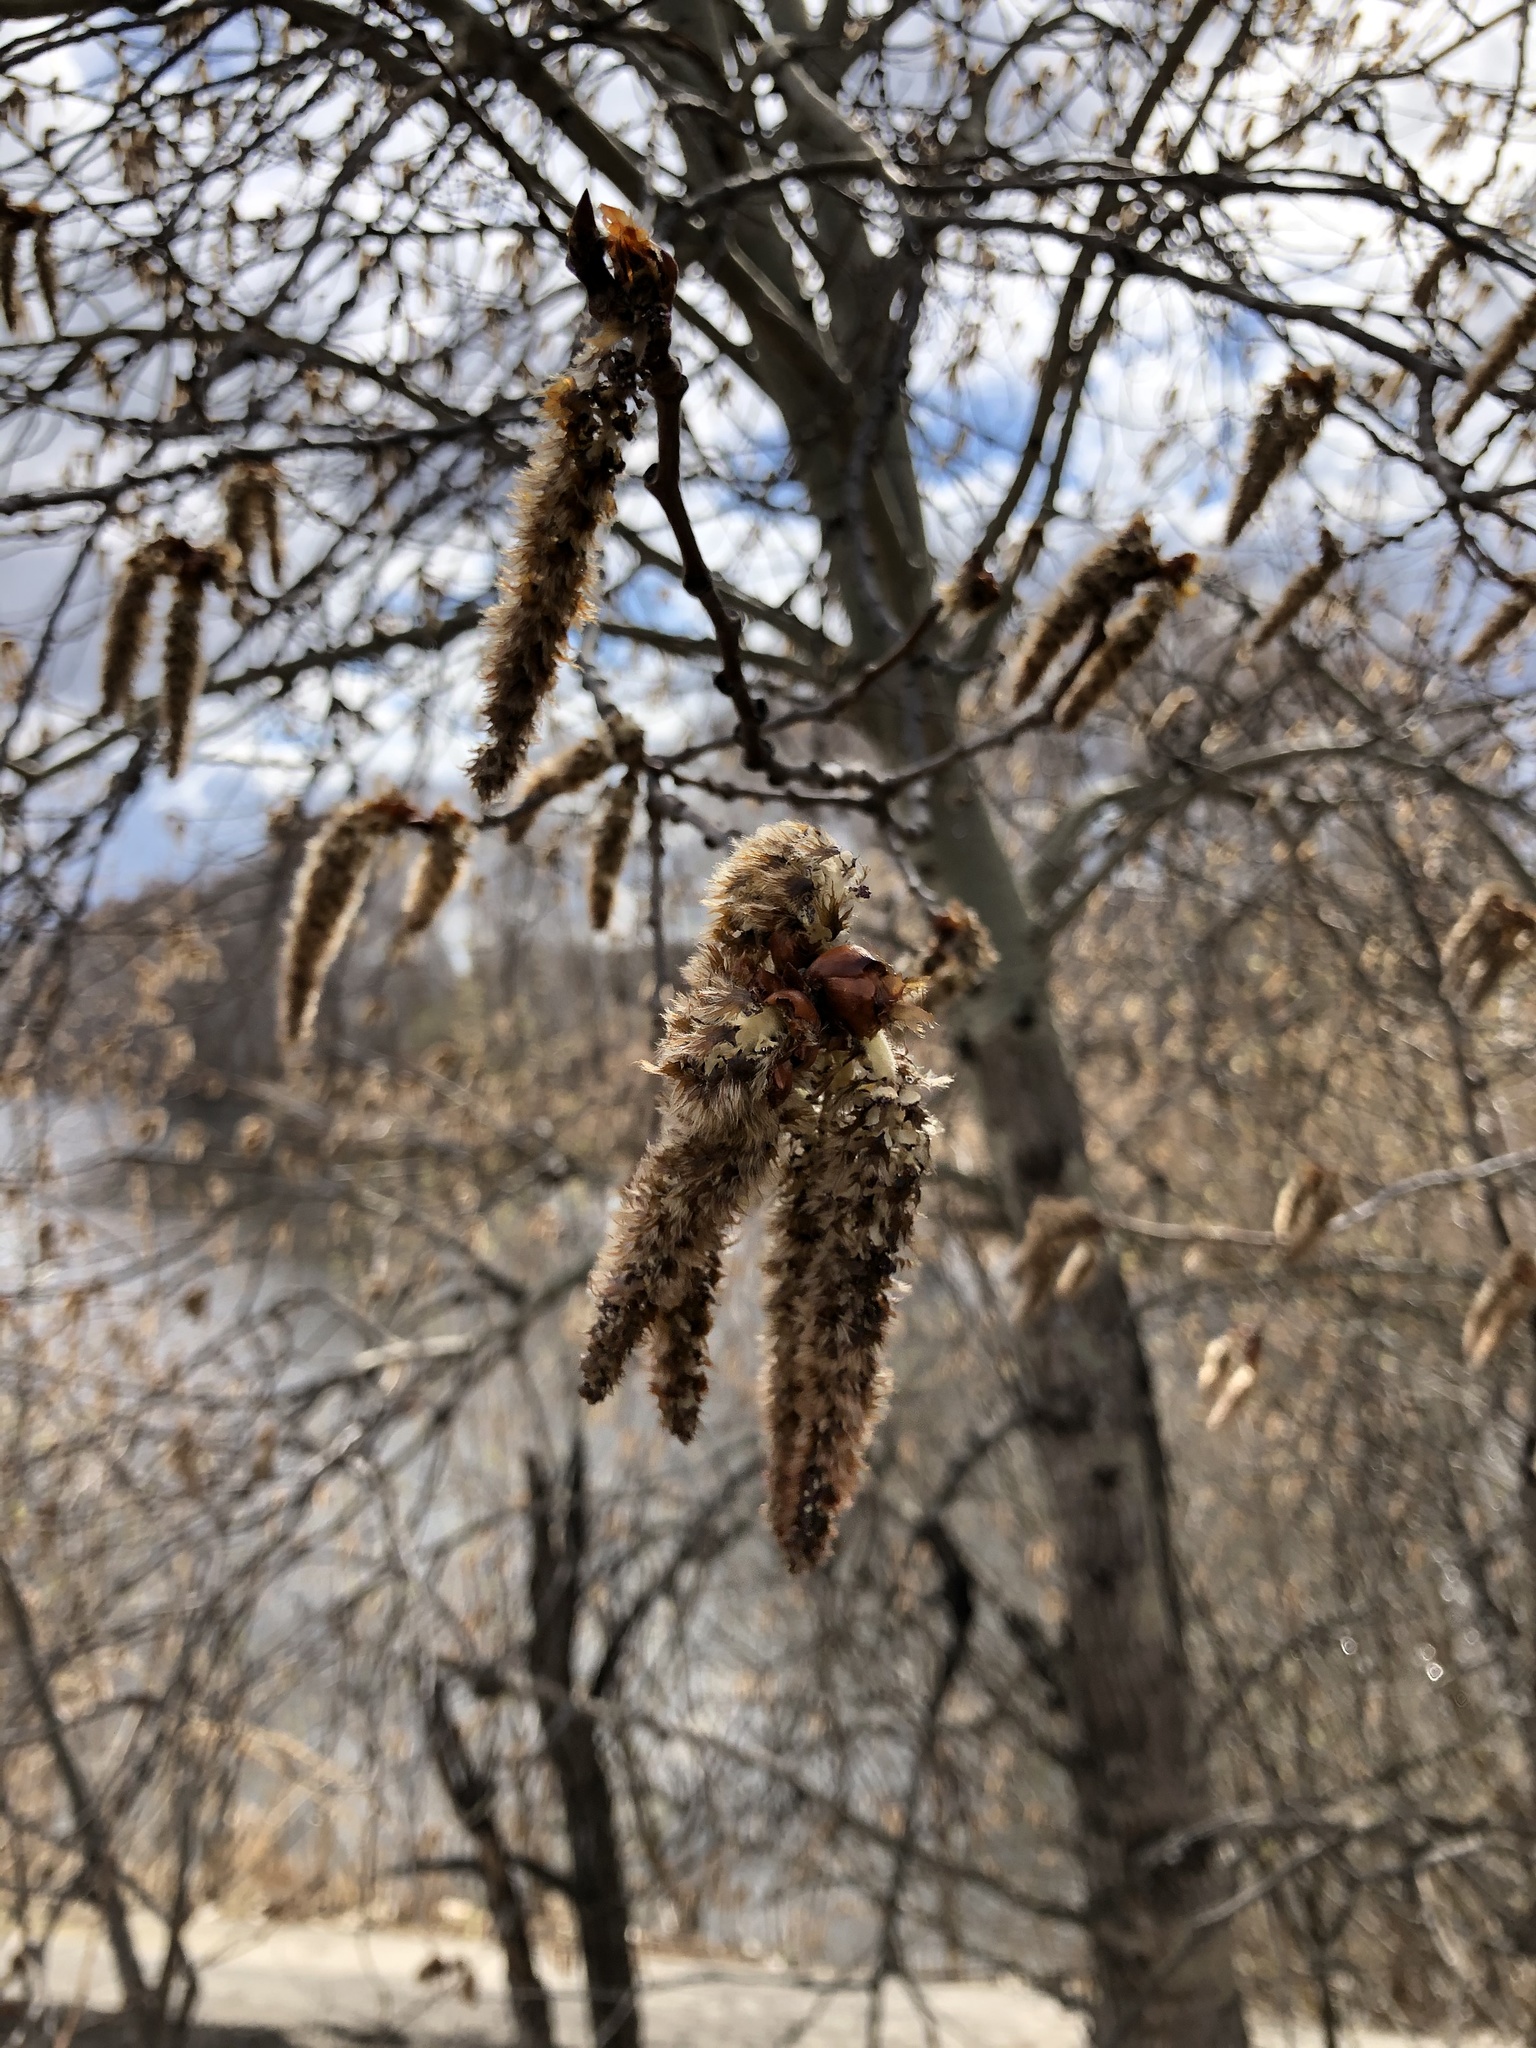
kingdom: Plantae
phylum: Tracheophyta
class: Magnoliopsida
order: Malpighiales
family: Salicaceae
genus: Populus
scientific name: Populus tremula
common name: European aspen
